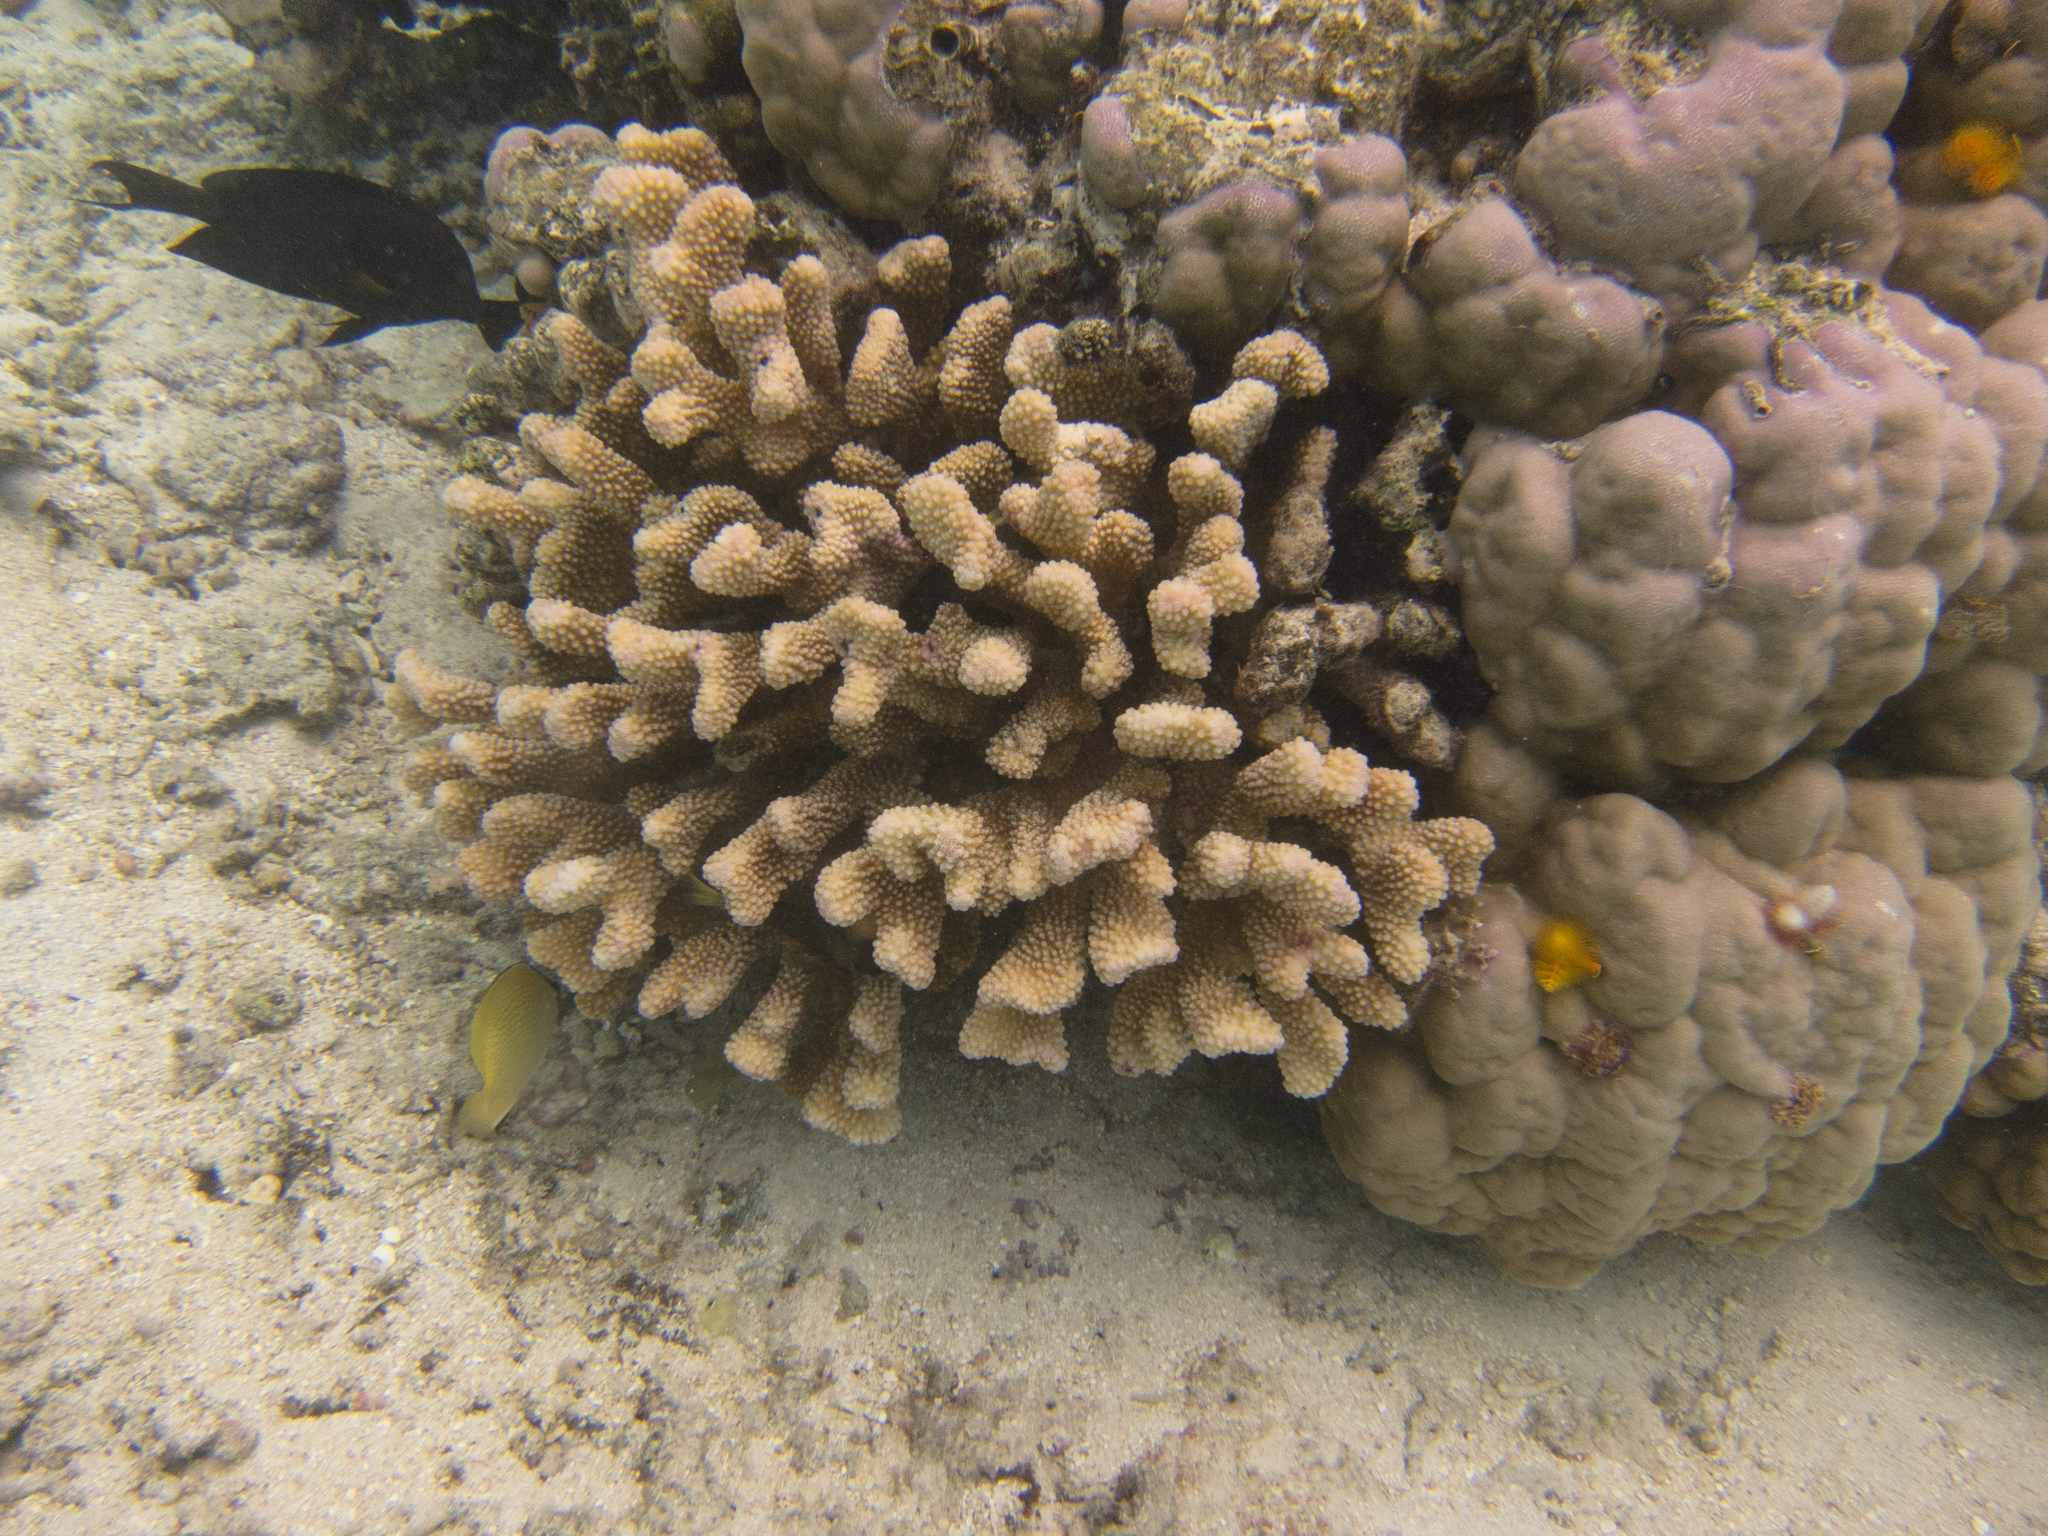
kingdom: Animalia
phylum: Chordata
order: Perciformes
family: Chaetodontidae
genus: Chaetodon
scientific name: Chaetodon citrinellus
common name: Speckled butterflyfish
